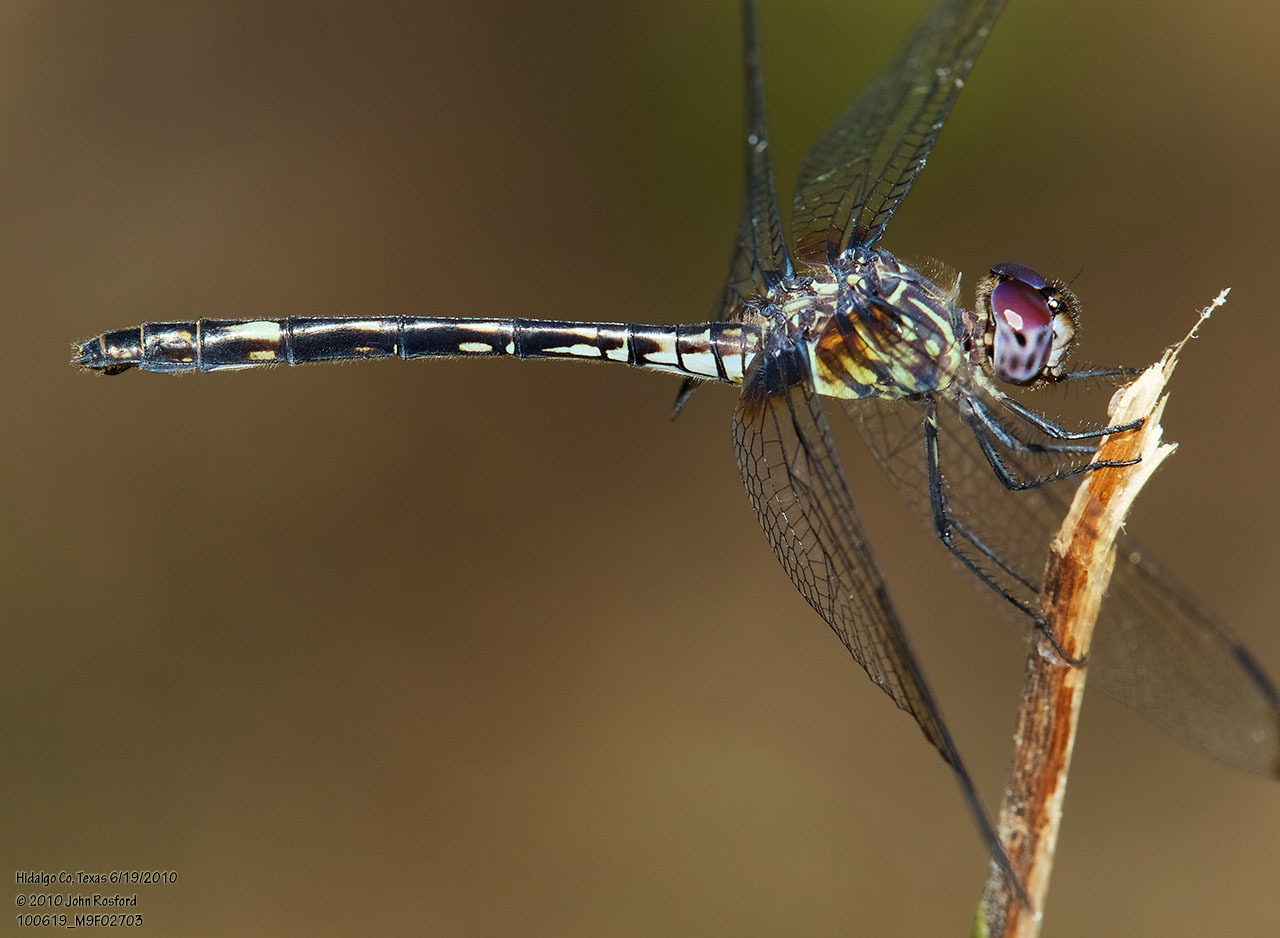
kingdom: Animalia
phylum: Arthropoda
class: Insecta
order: Odonata
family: Libellulidae
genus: Dythemis
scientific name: Dythemis nigrescens
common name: Black setwing
